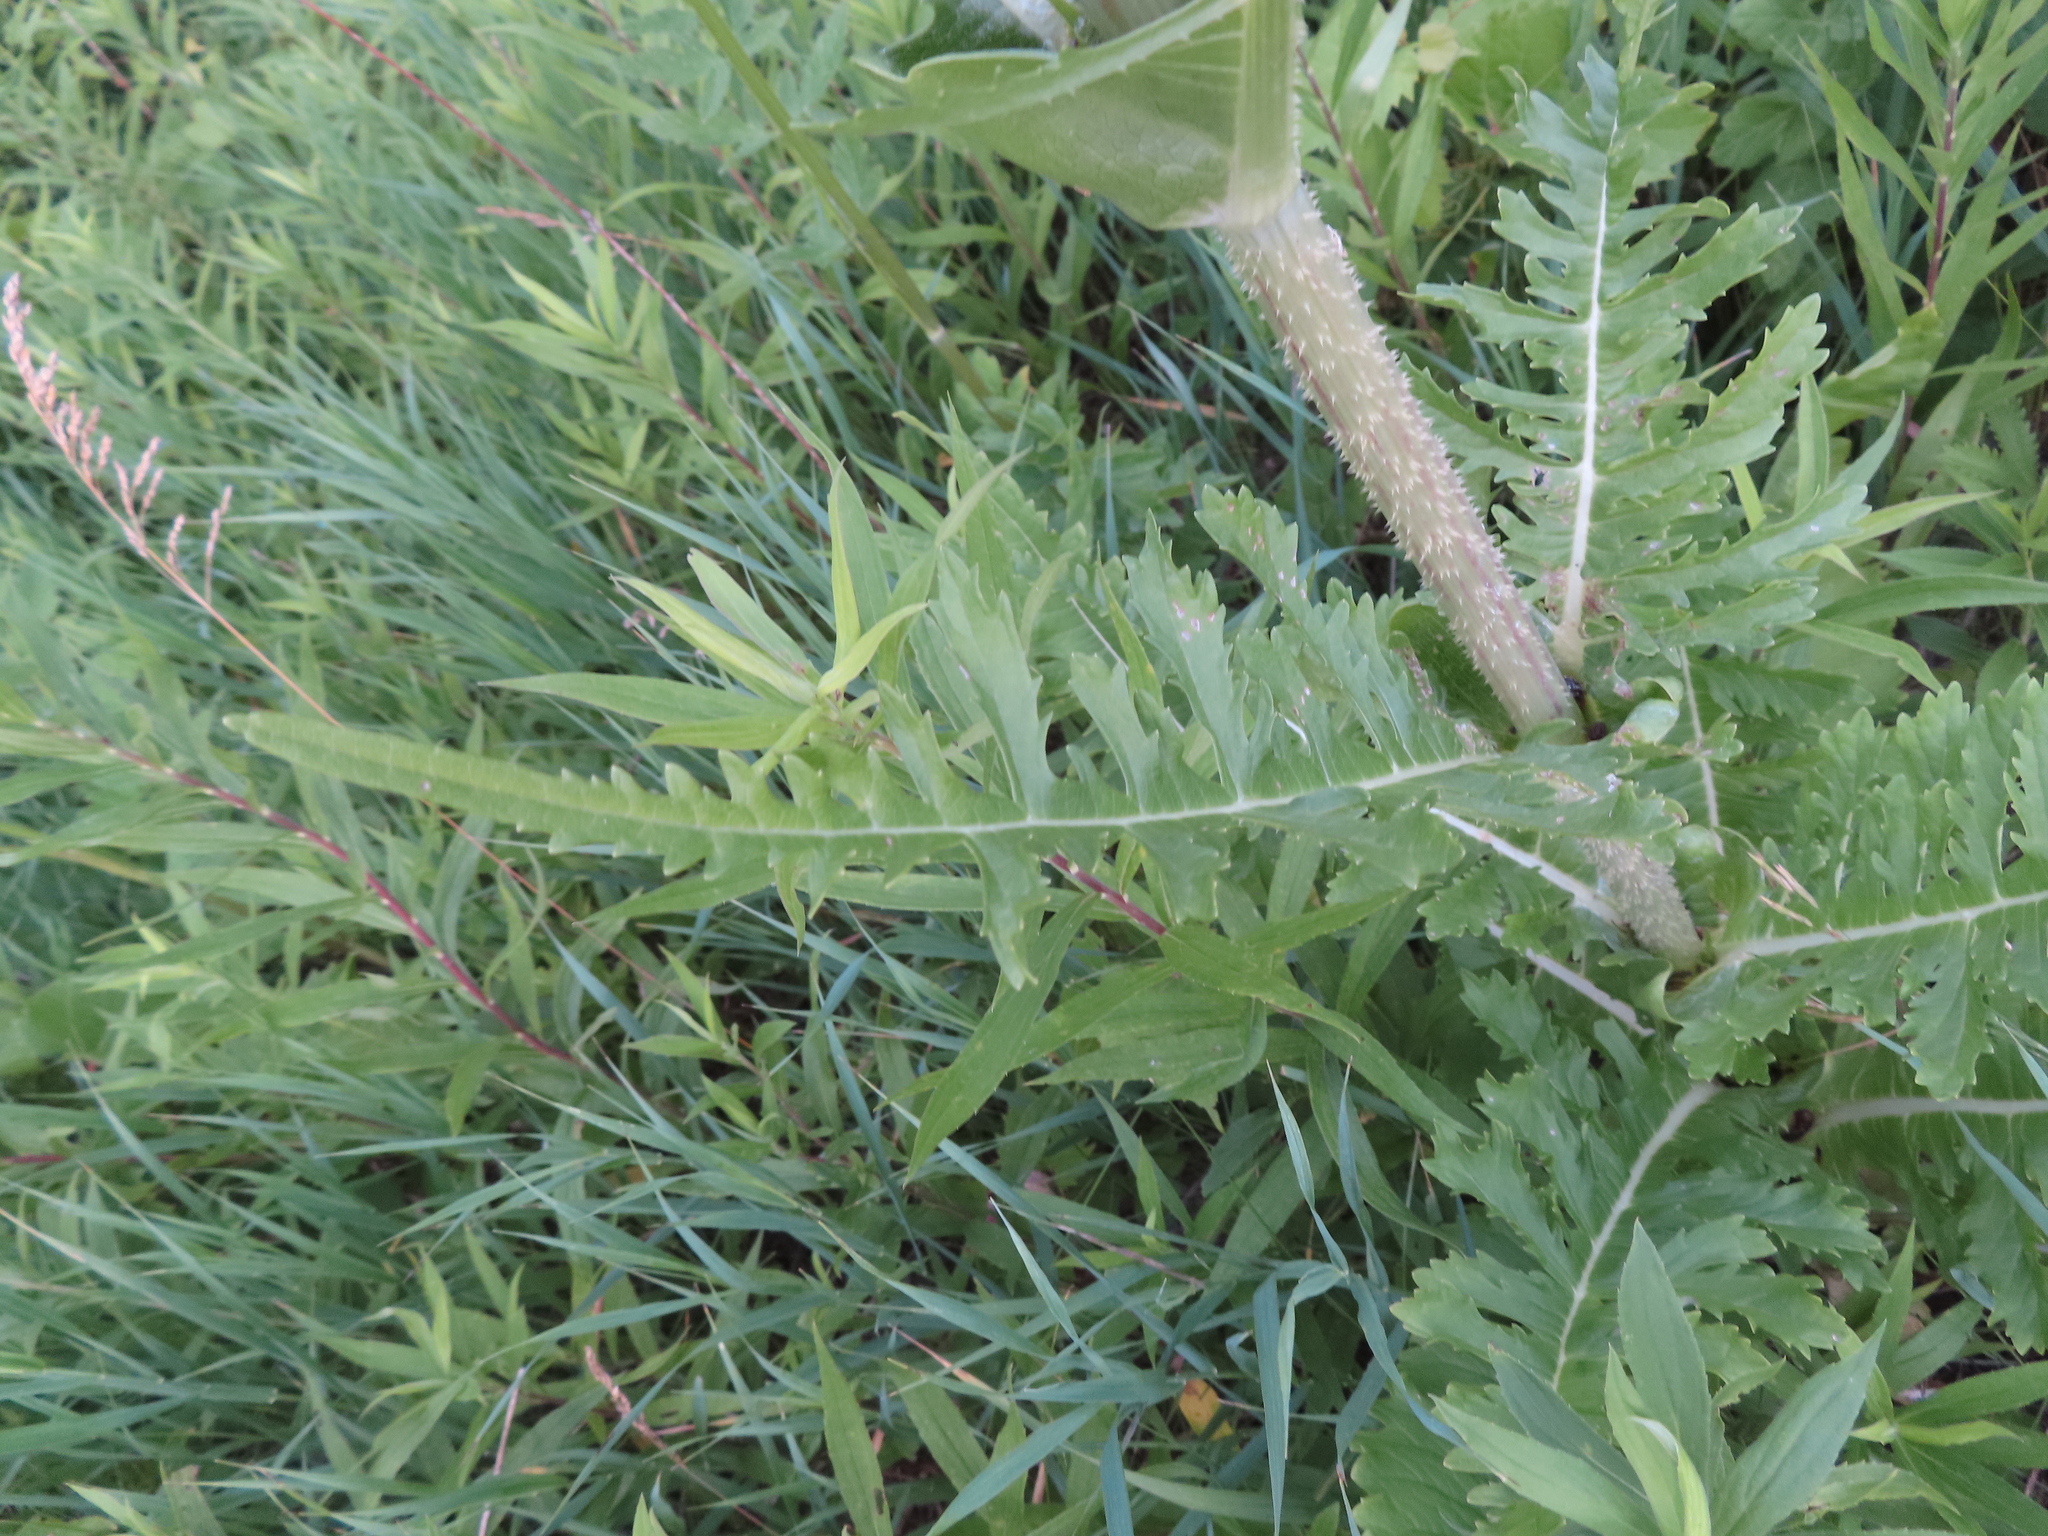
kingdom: Plantae
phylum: Tracheophyta
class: Magnoliopsida
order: Dipsacales
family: Caprifoliaceae
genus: Dipsacus
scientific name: Dipsacus laciniatus
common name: Cut-leaved teasel
